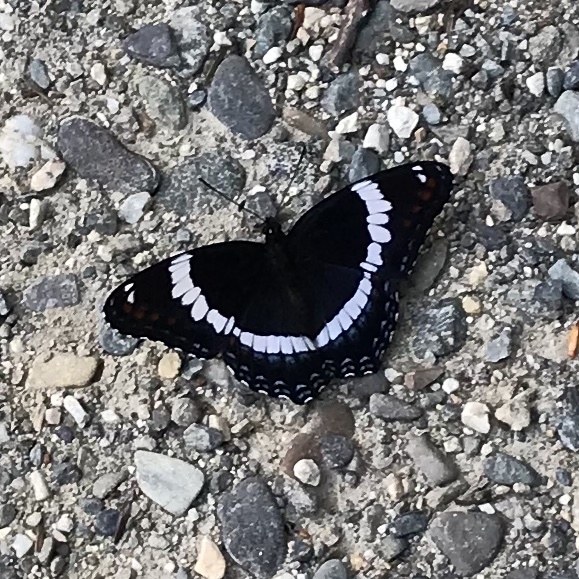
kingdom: Animalia
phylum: Arthropoda
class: Insecta
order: Lepidoptera
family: Nymphalidae
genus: Limenitis
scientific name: Limenitis arthemis
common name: Red-spotted admiral
